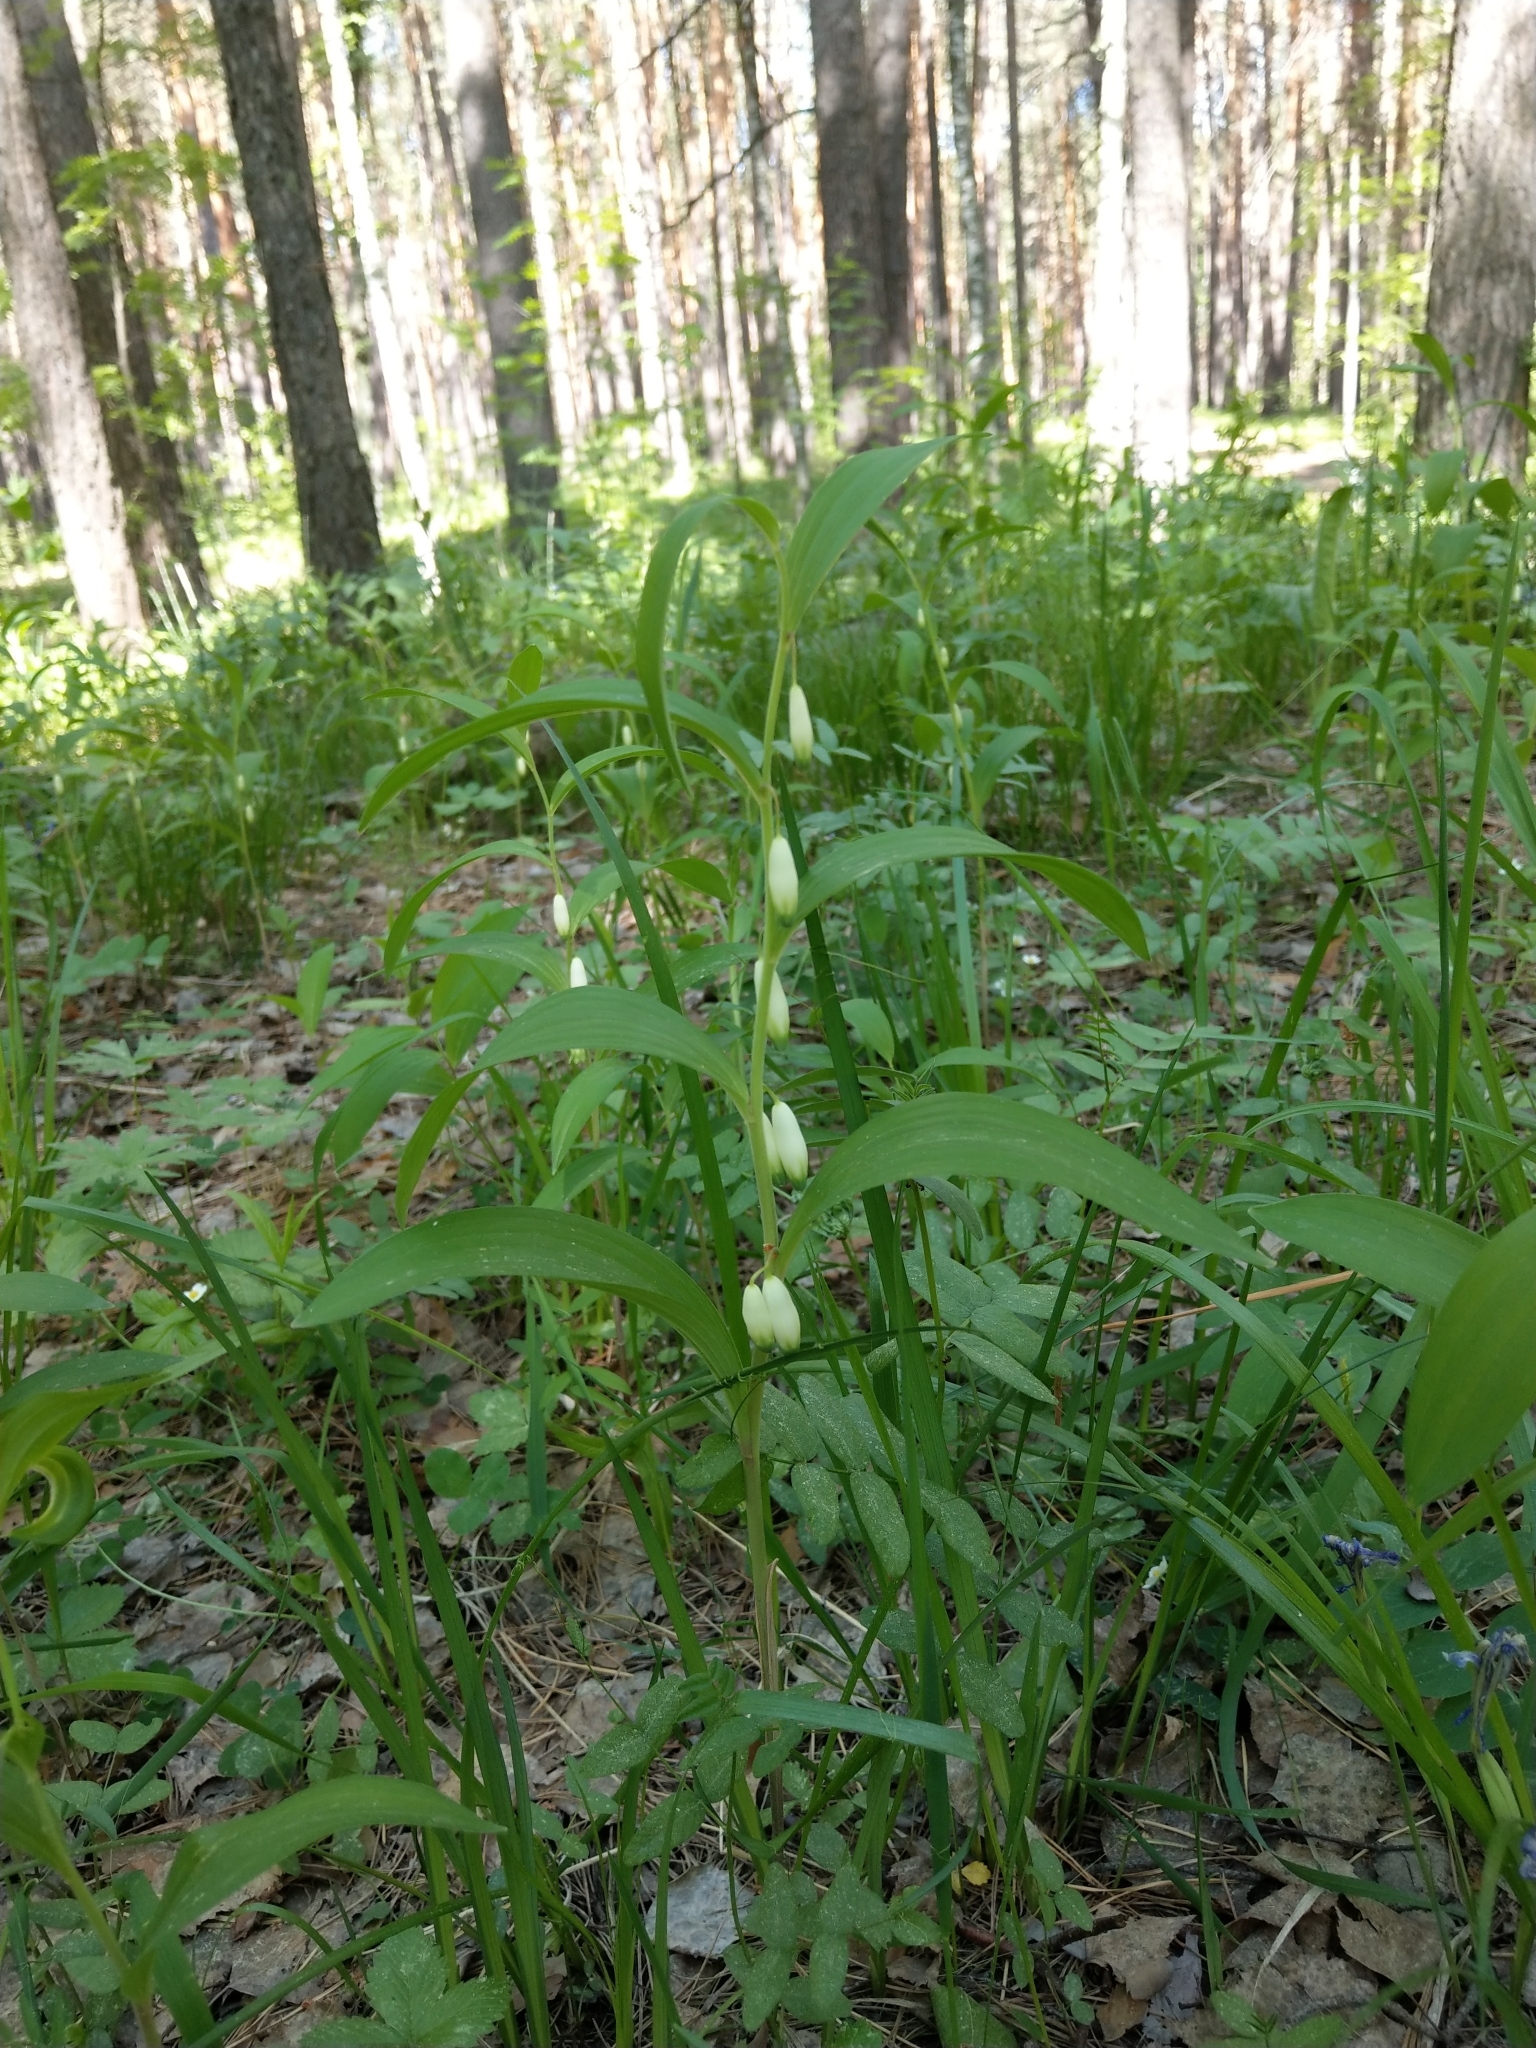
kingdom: Plantae
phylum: Tracheophyta
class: Liliopsida
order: Asparagales
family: Asparagaceae
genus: Polygonatum
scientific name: Polygonatum odoratum
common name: Angular solomon's-seal
